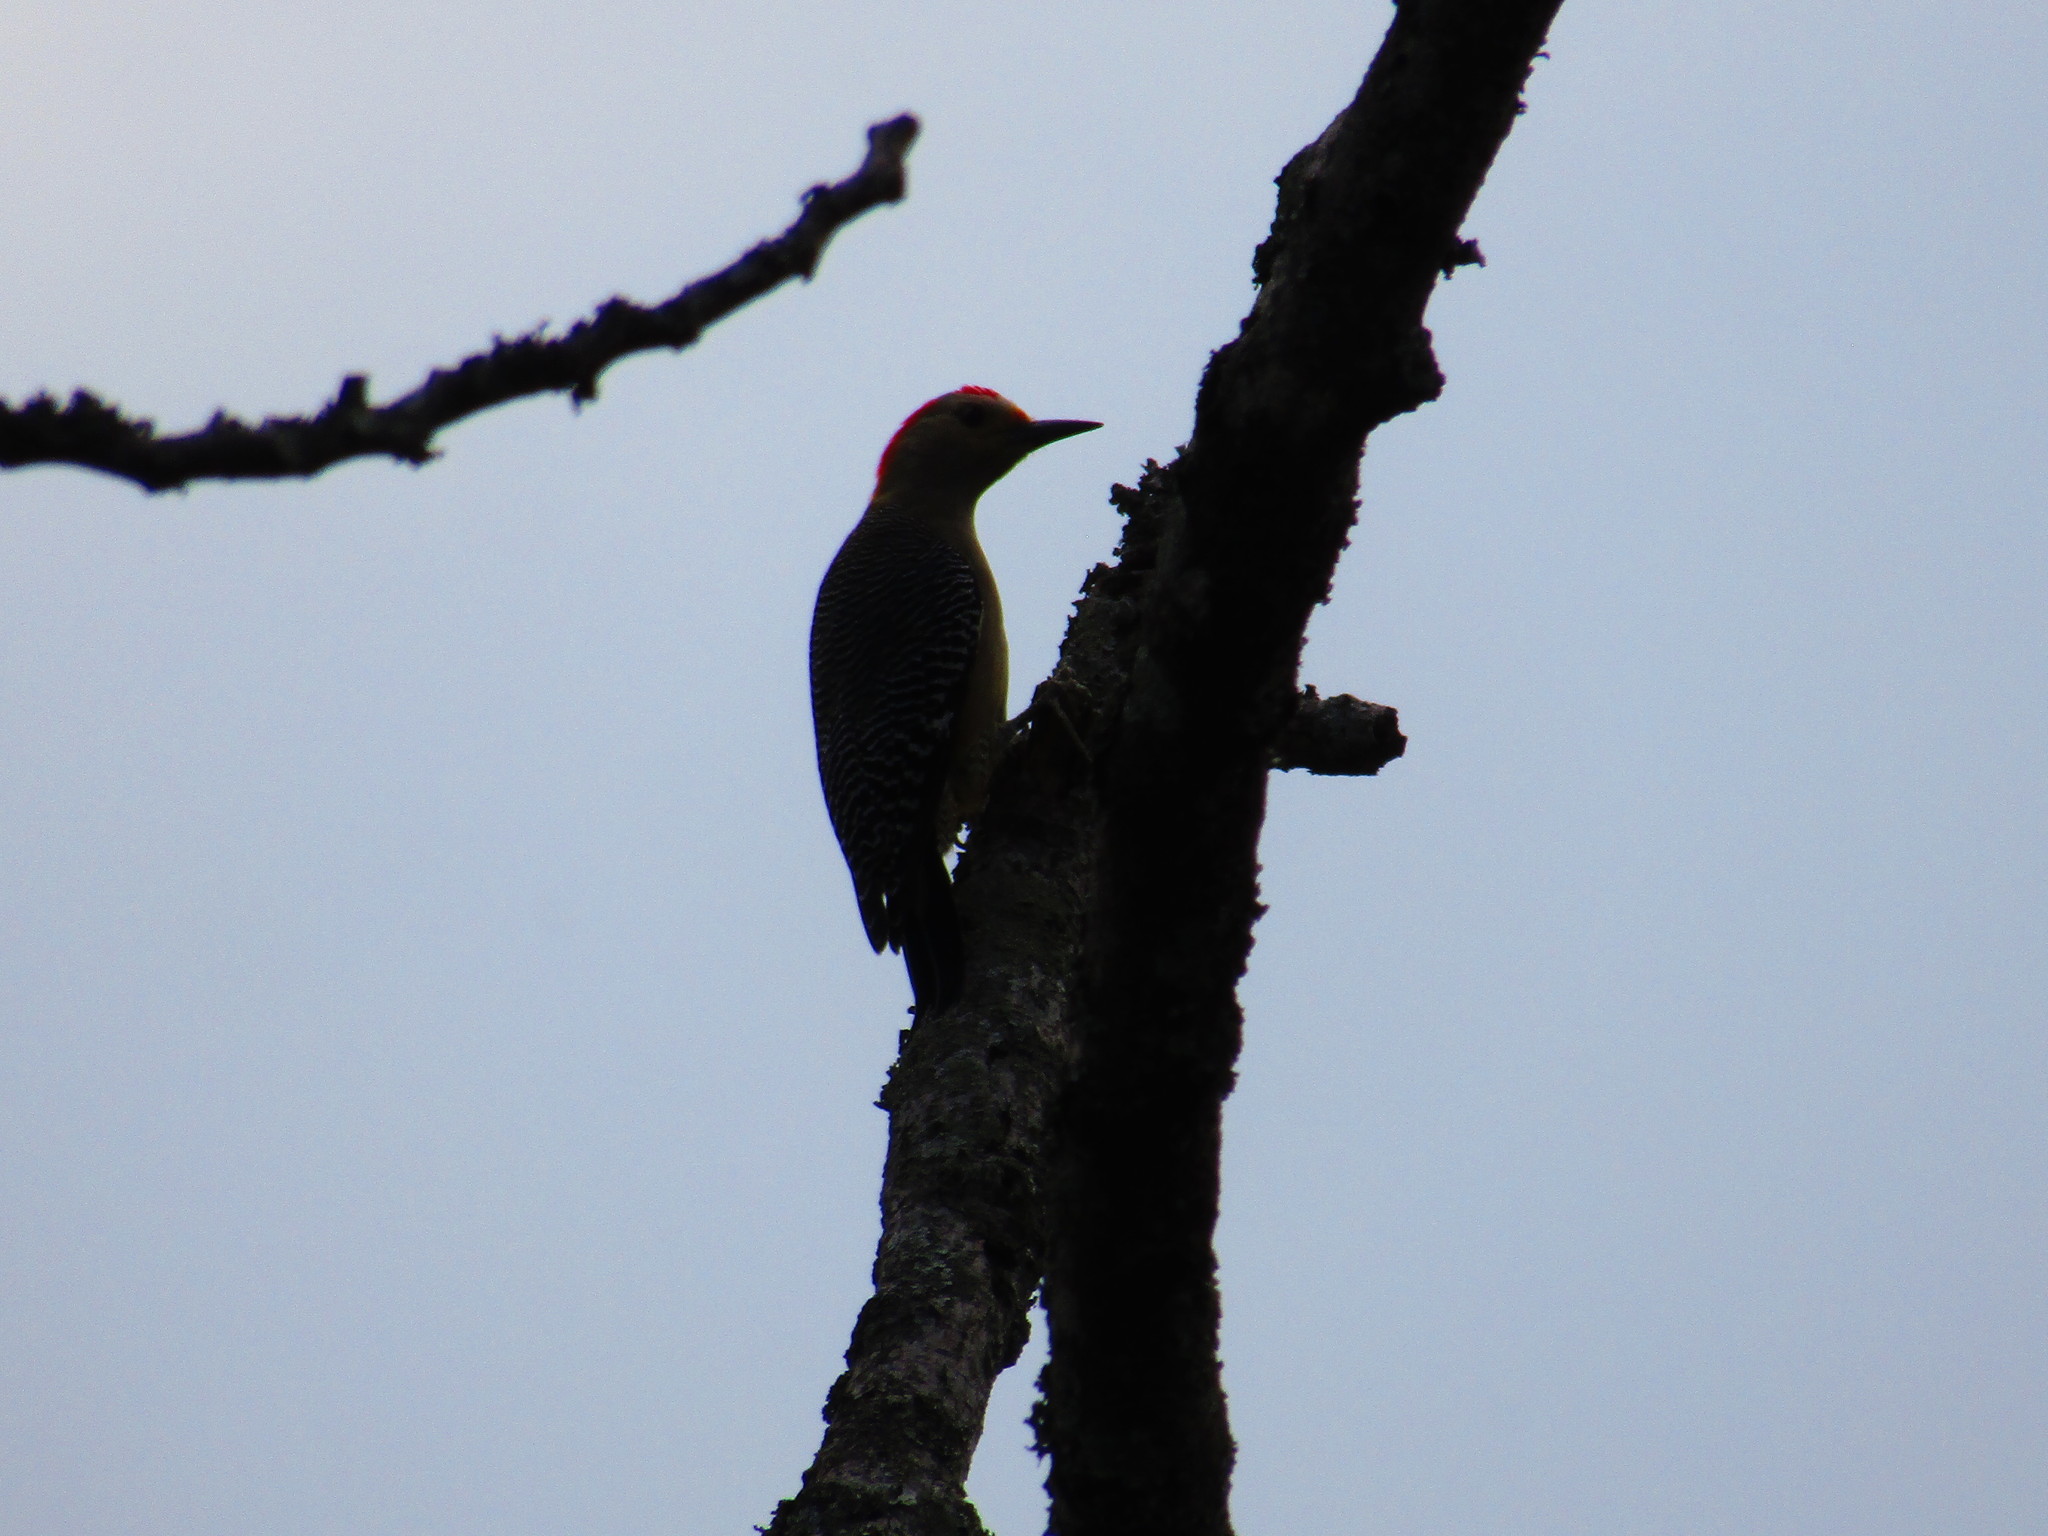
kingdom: Animalia
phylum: Chordata
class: Aves
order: Piciformes
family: Picidae
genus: Melanerpes
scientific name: Melanerpes aurifrons
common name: Golden-fronted woodpecker
